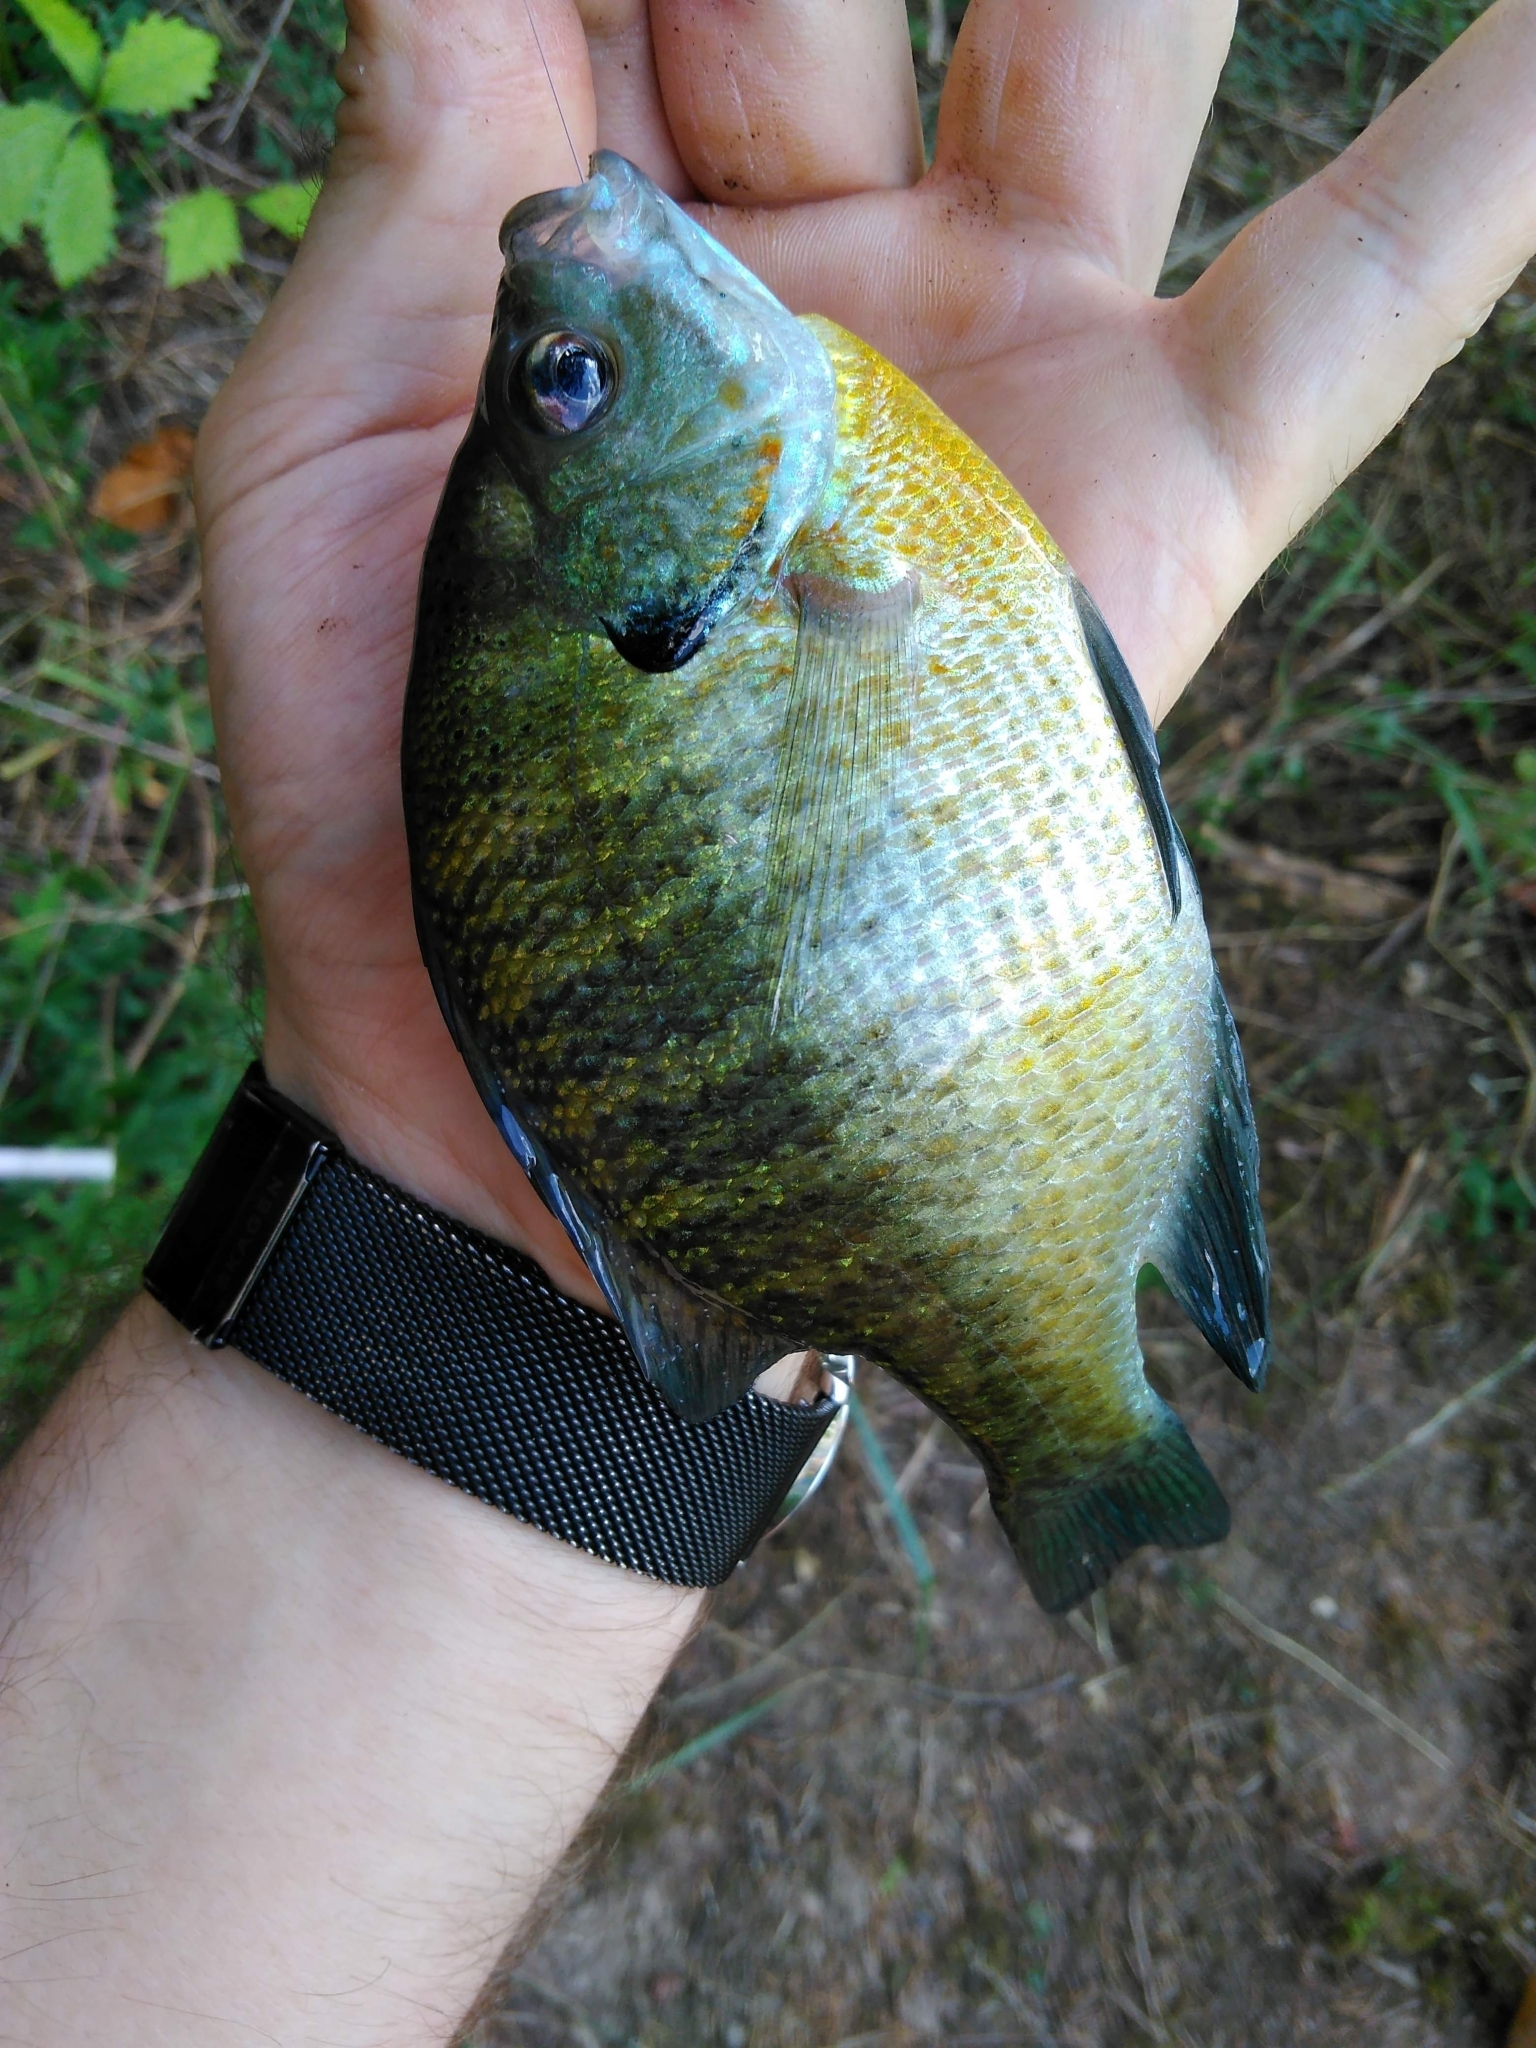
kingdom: Animalia
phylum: Chordata
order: Perciformes
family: Centrarchidae
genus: Lepomis
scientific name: Lepomis macrochirus
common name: Bluegill
